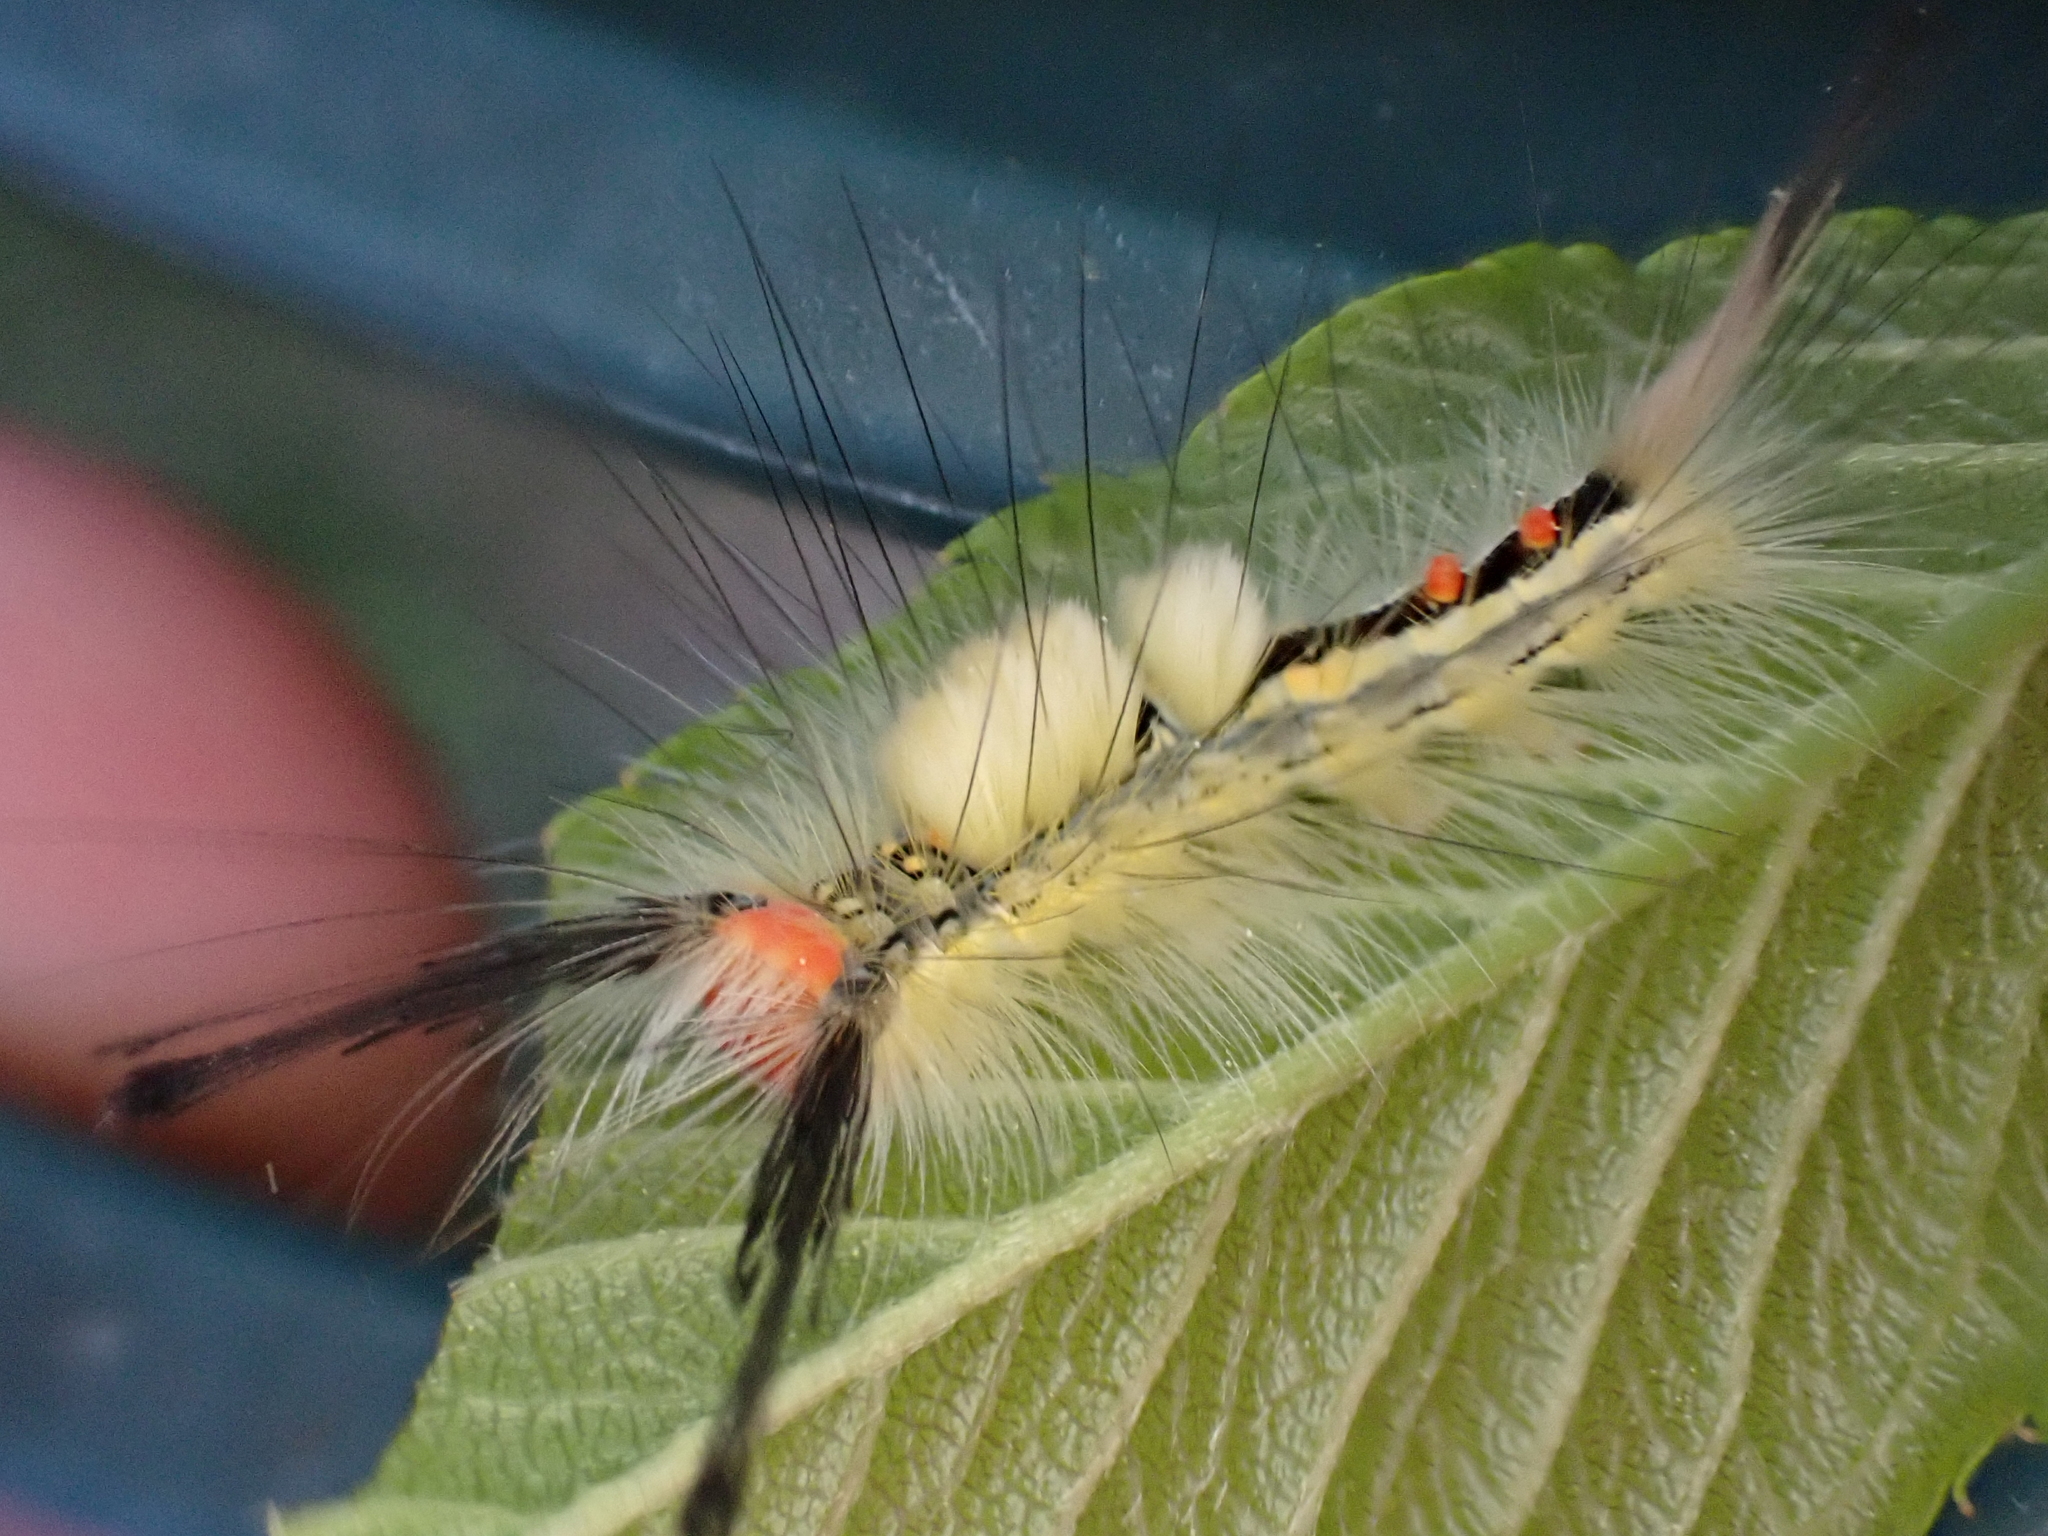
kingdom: Animalia
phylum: Arthropoda
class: Insecta
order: Lepidoptera
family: Erebidae
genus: Orgyia
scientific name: Orgyia leucostigma
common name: White-marked tussock moth
